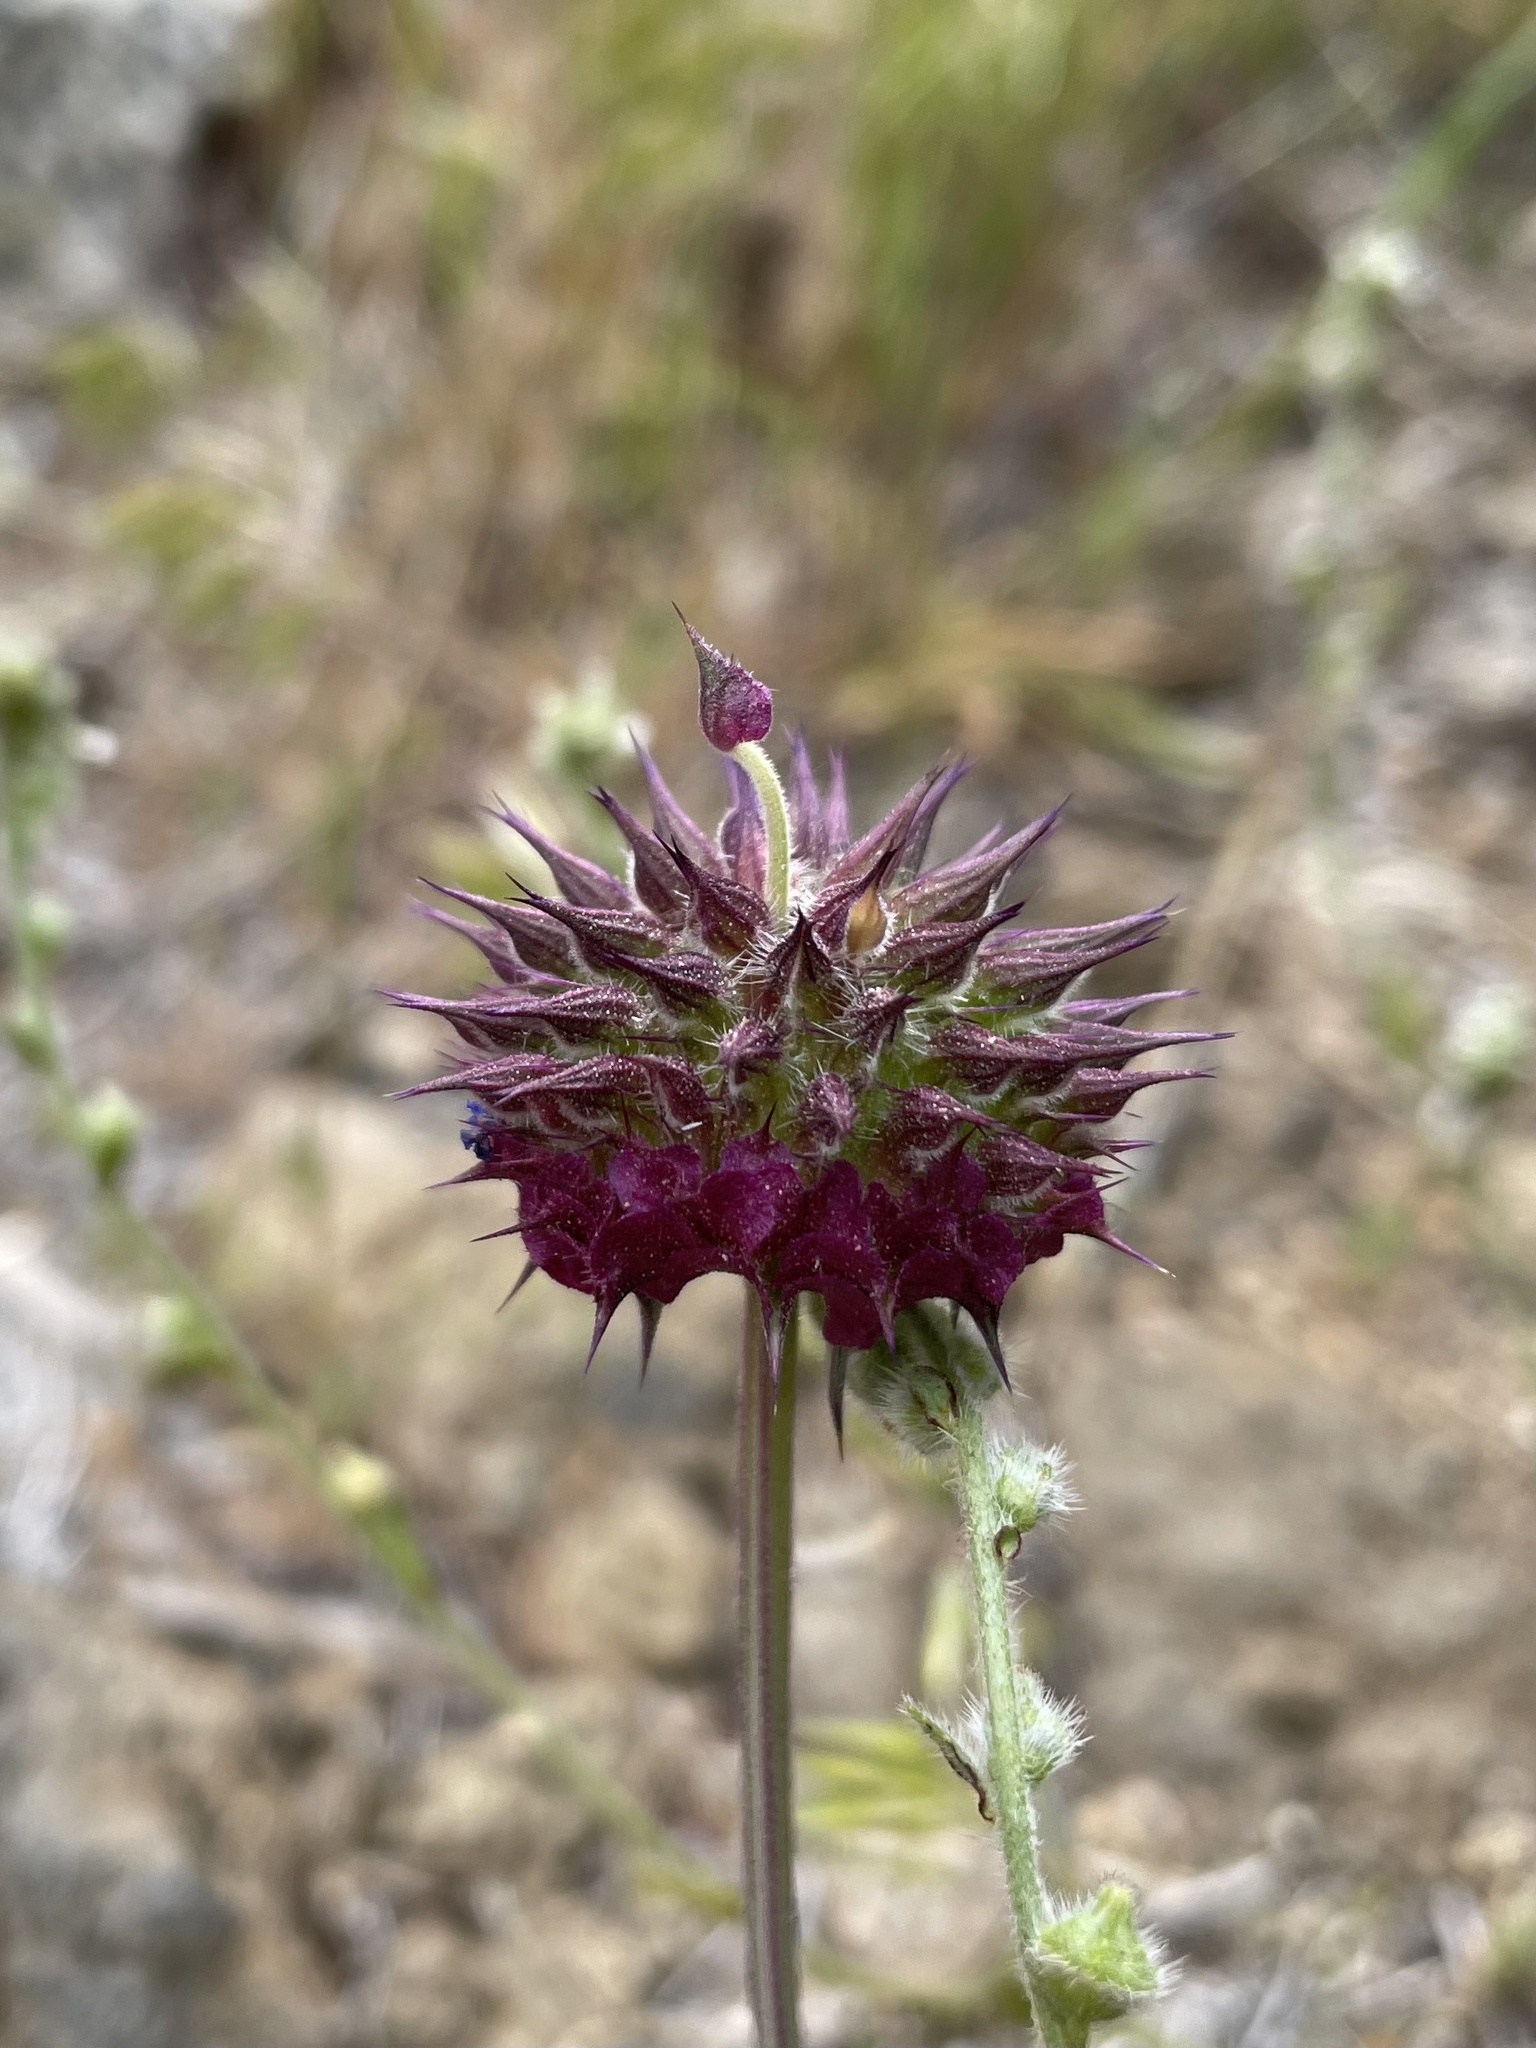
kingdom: Plantae
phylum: Tracheophyta
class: Magnoliopsida
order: Lamiales
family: Lamiaceae
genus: Salvia
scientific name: Salvia columbariae
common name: Chia
